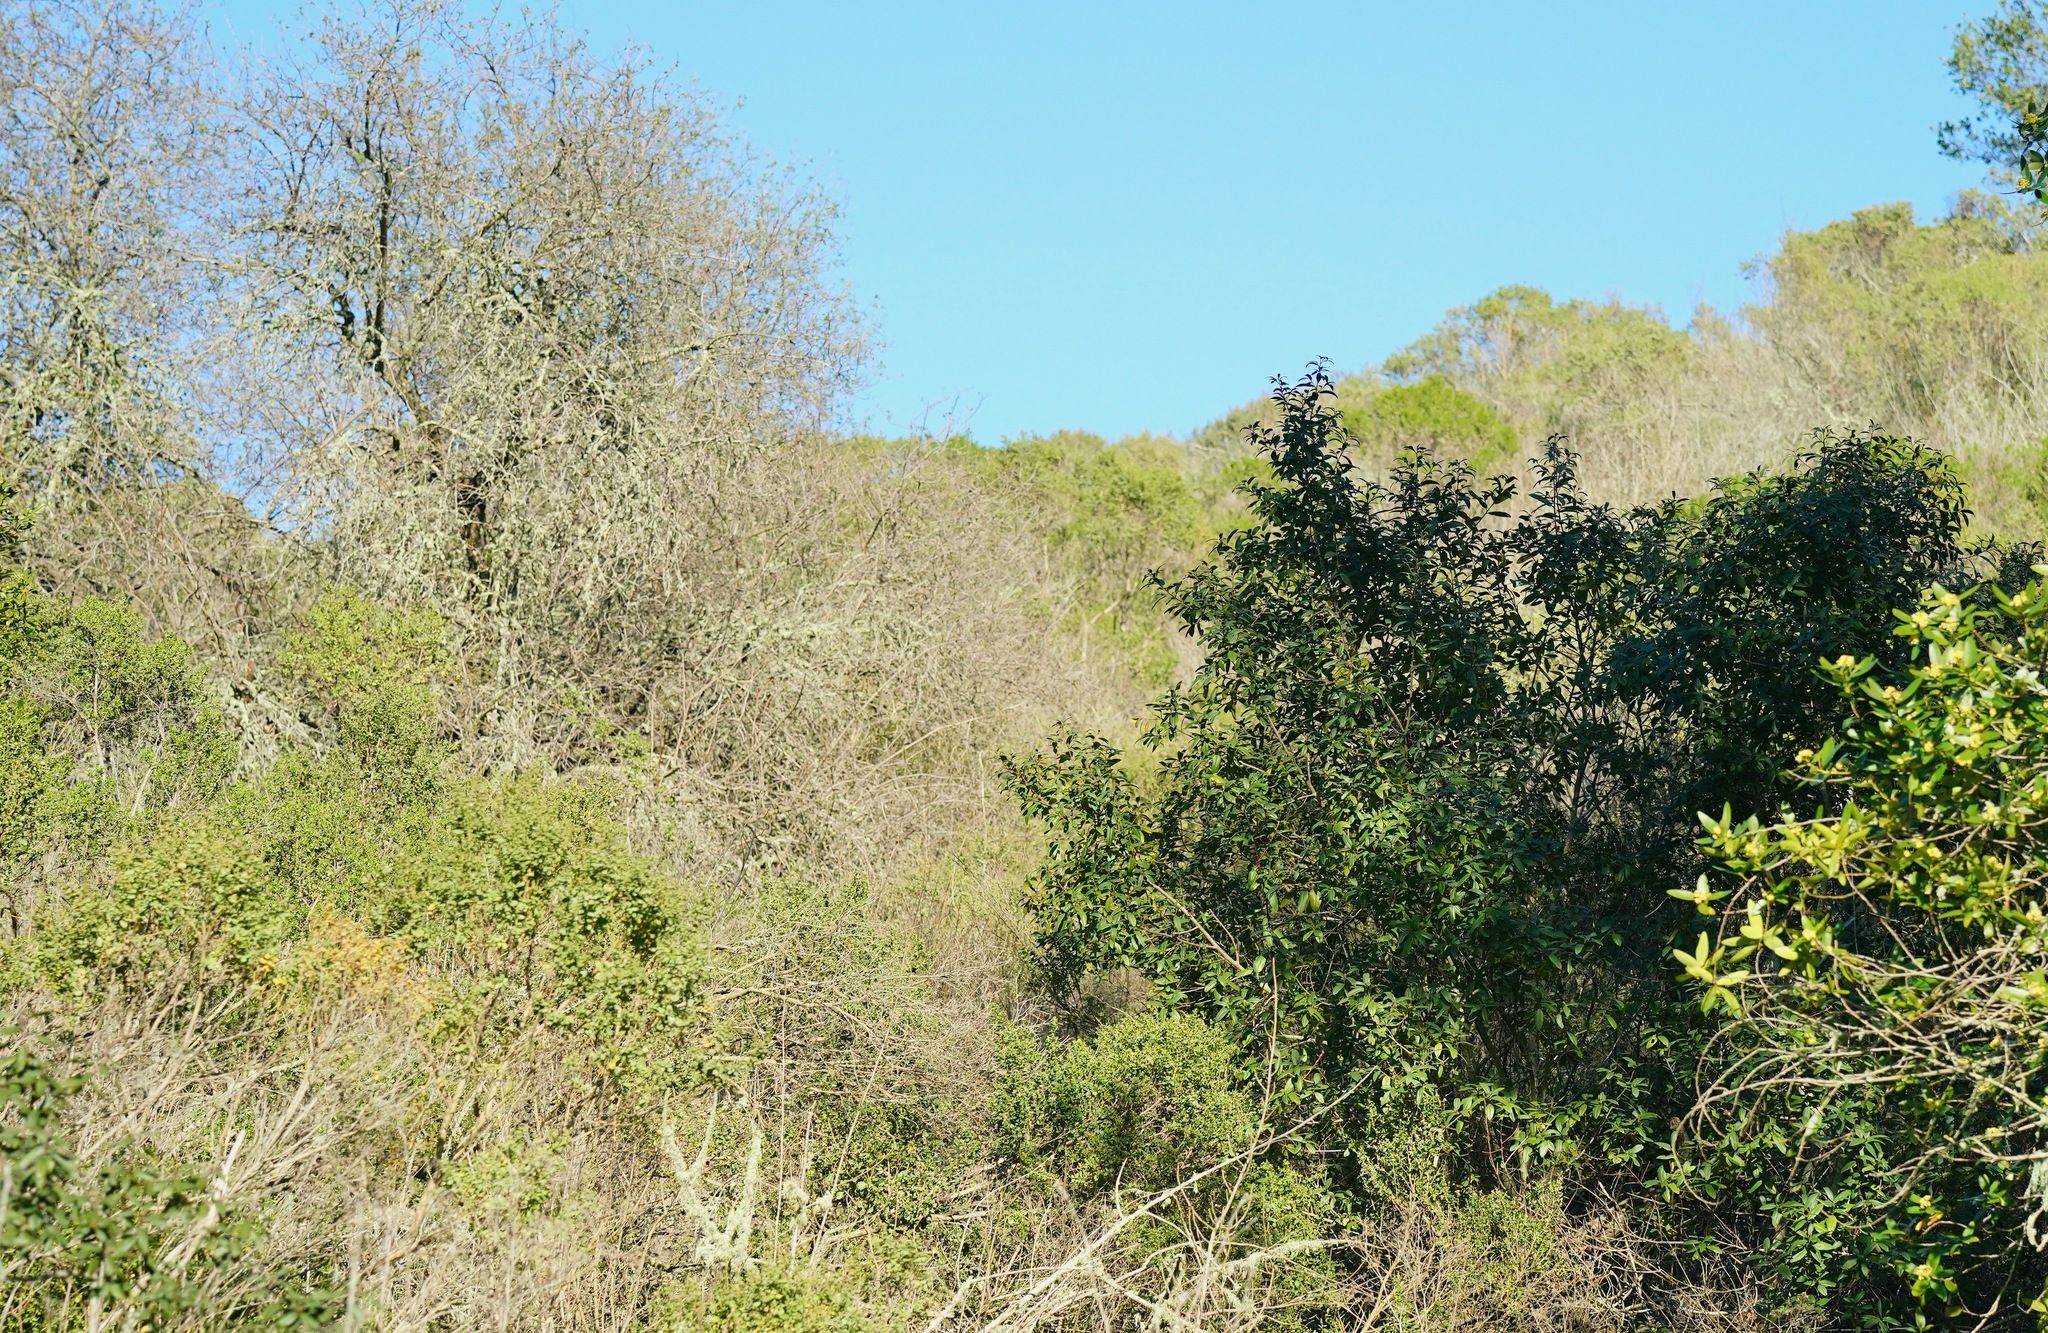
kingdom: Plantae
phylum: Tracheophyta
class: Magnoliopsida
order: Rosales
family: Rhamnaceae
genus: Frangula
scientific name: Frangula californica
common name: California buckthorn
